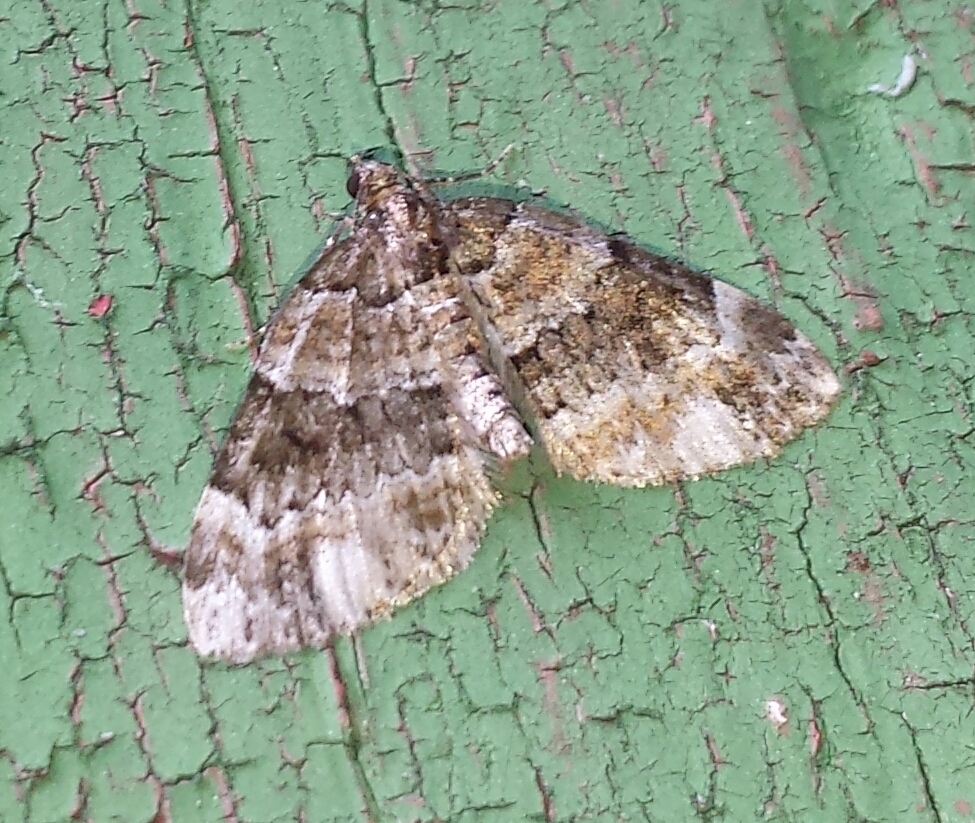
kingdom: Animalia
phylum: Arthropoda
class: Insecta
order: Lepidoptera
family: Geometridae
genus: Martania
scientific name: Martania
